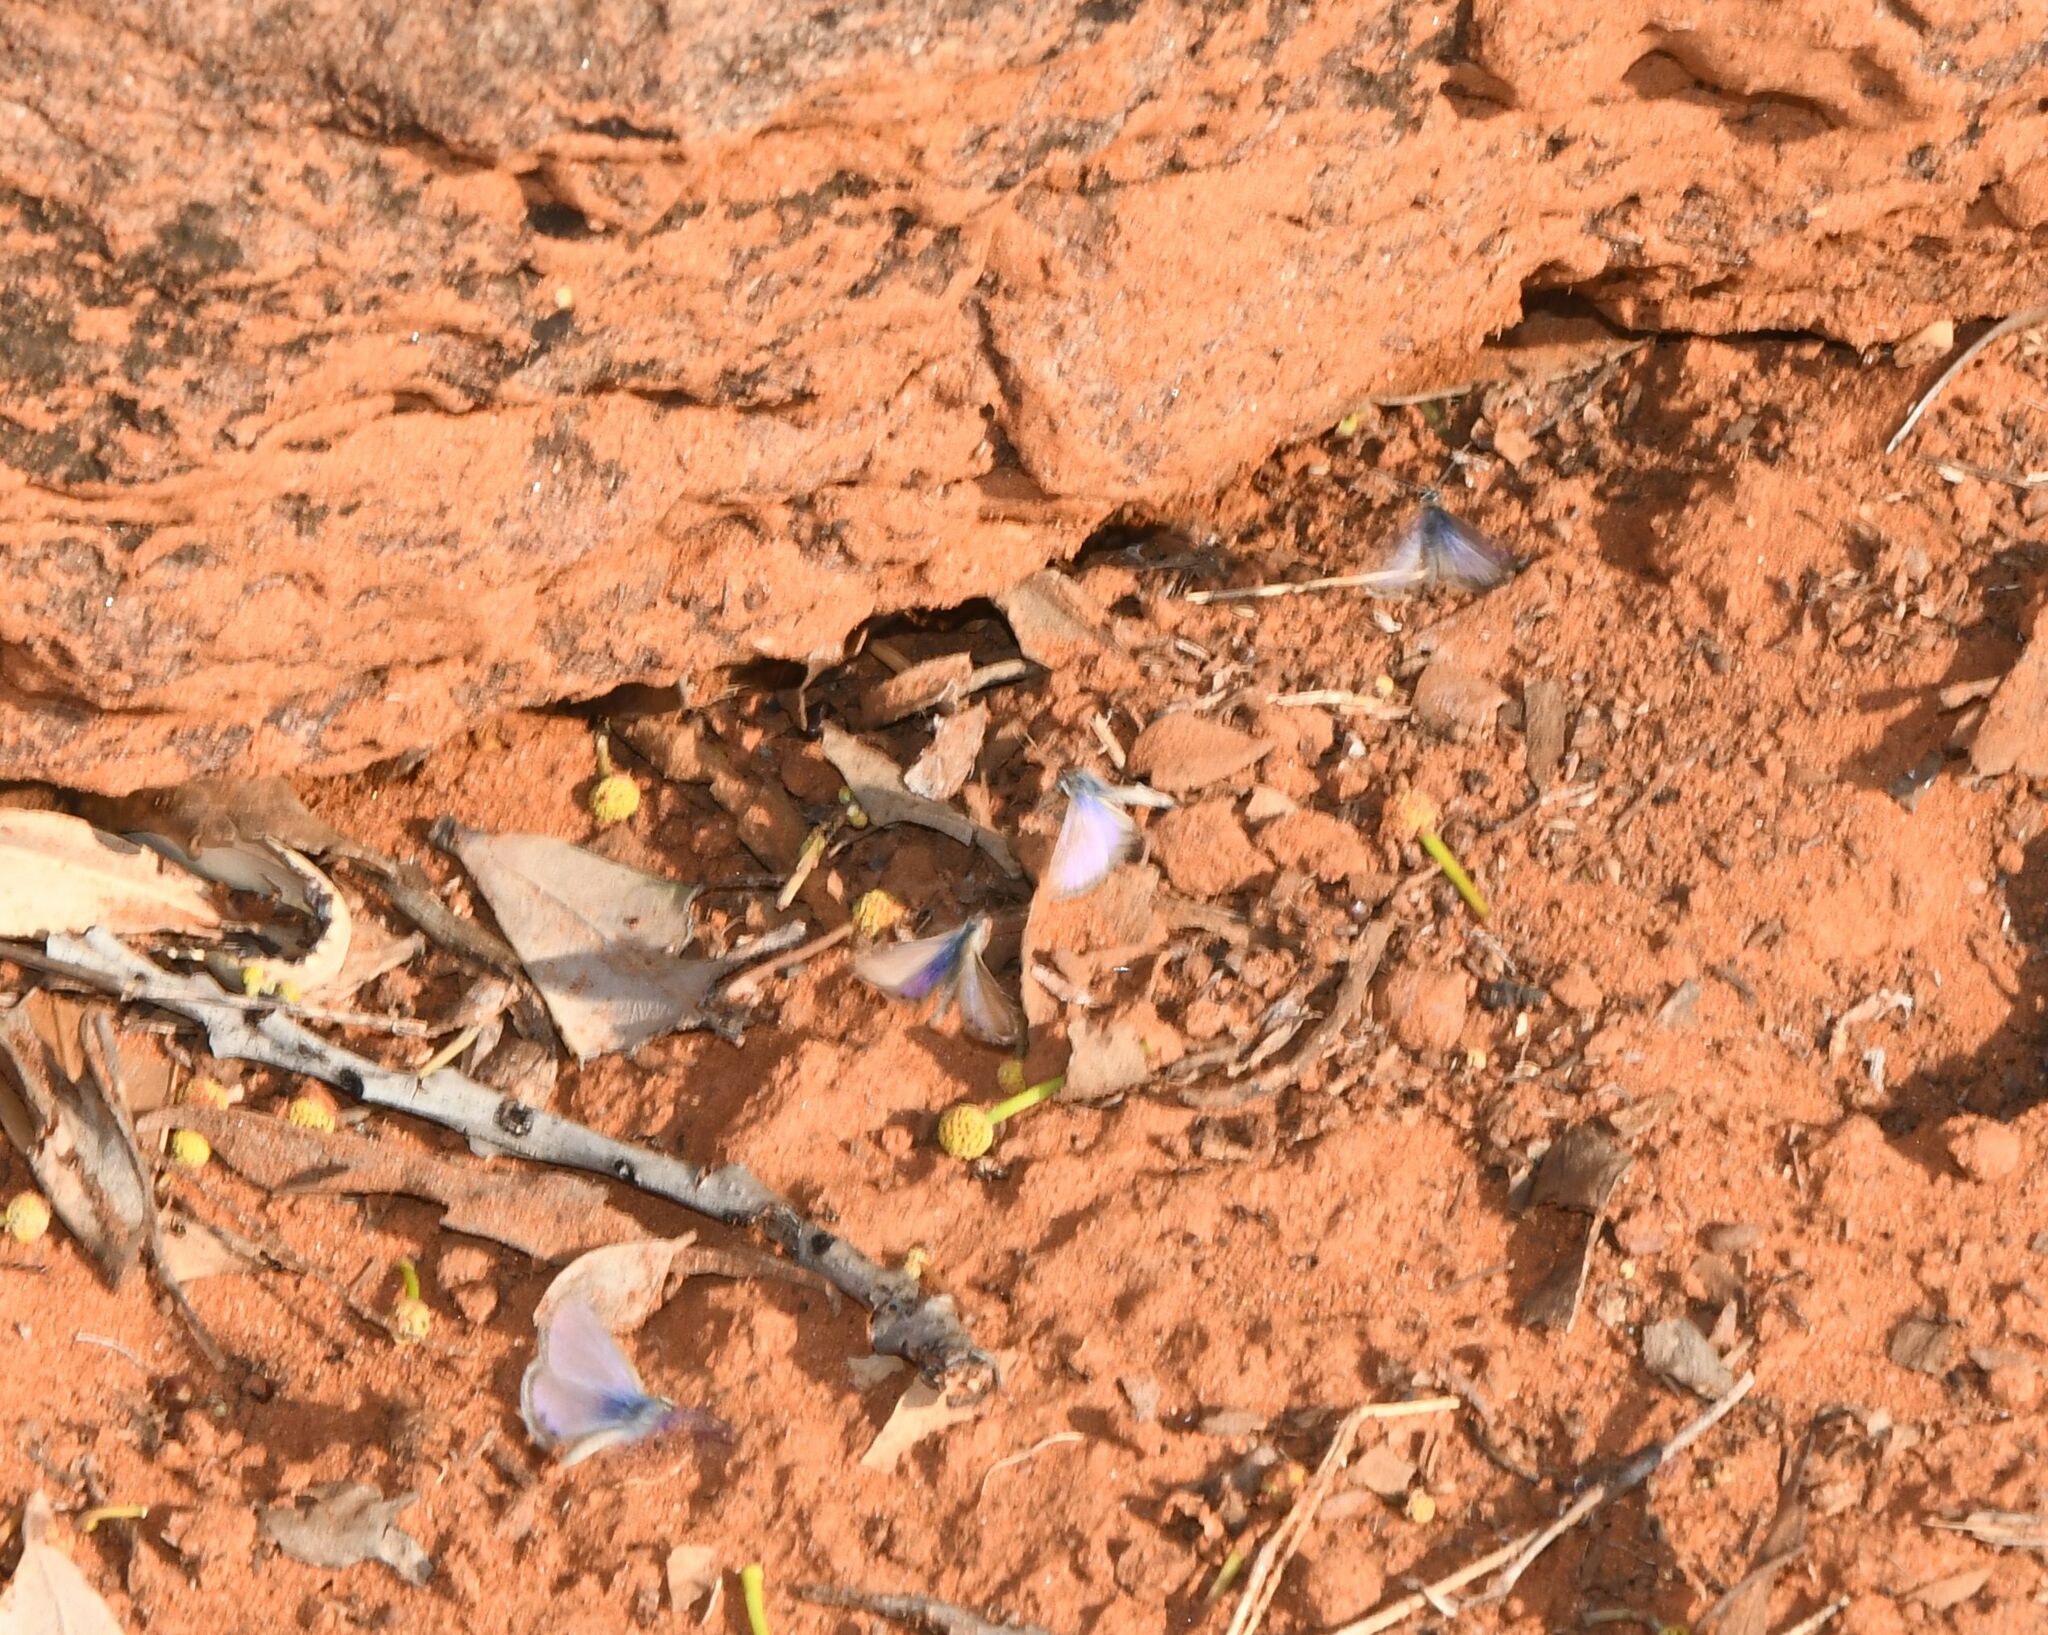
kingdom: Animalia
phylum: Arthropoda
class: Insecta
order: Lepidoptera
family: Lycaenidae
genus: Nacaduba
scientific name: Nacaduba biocellata
